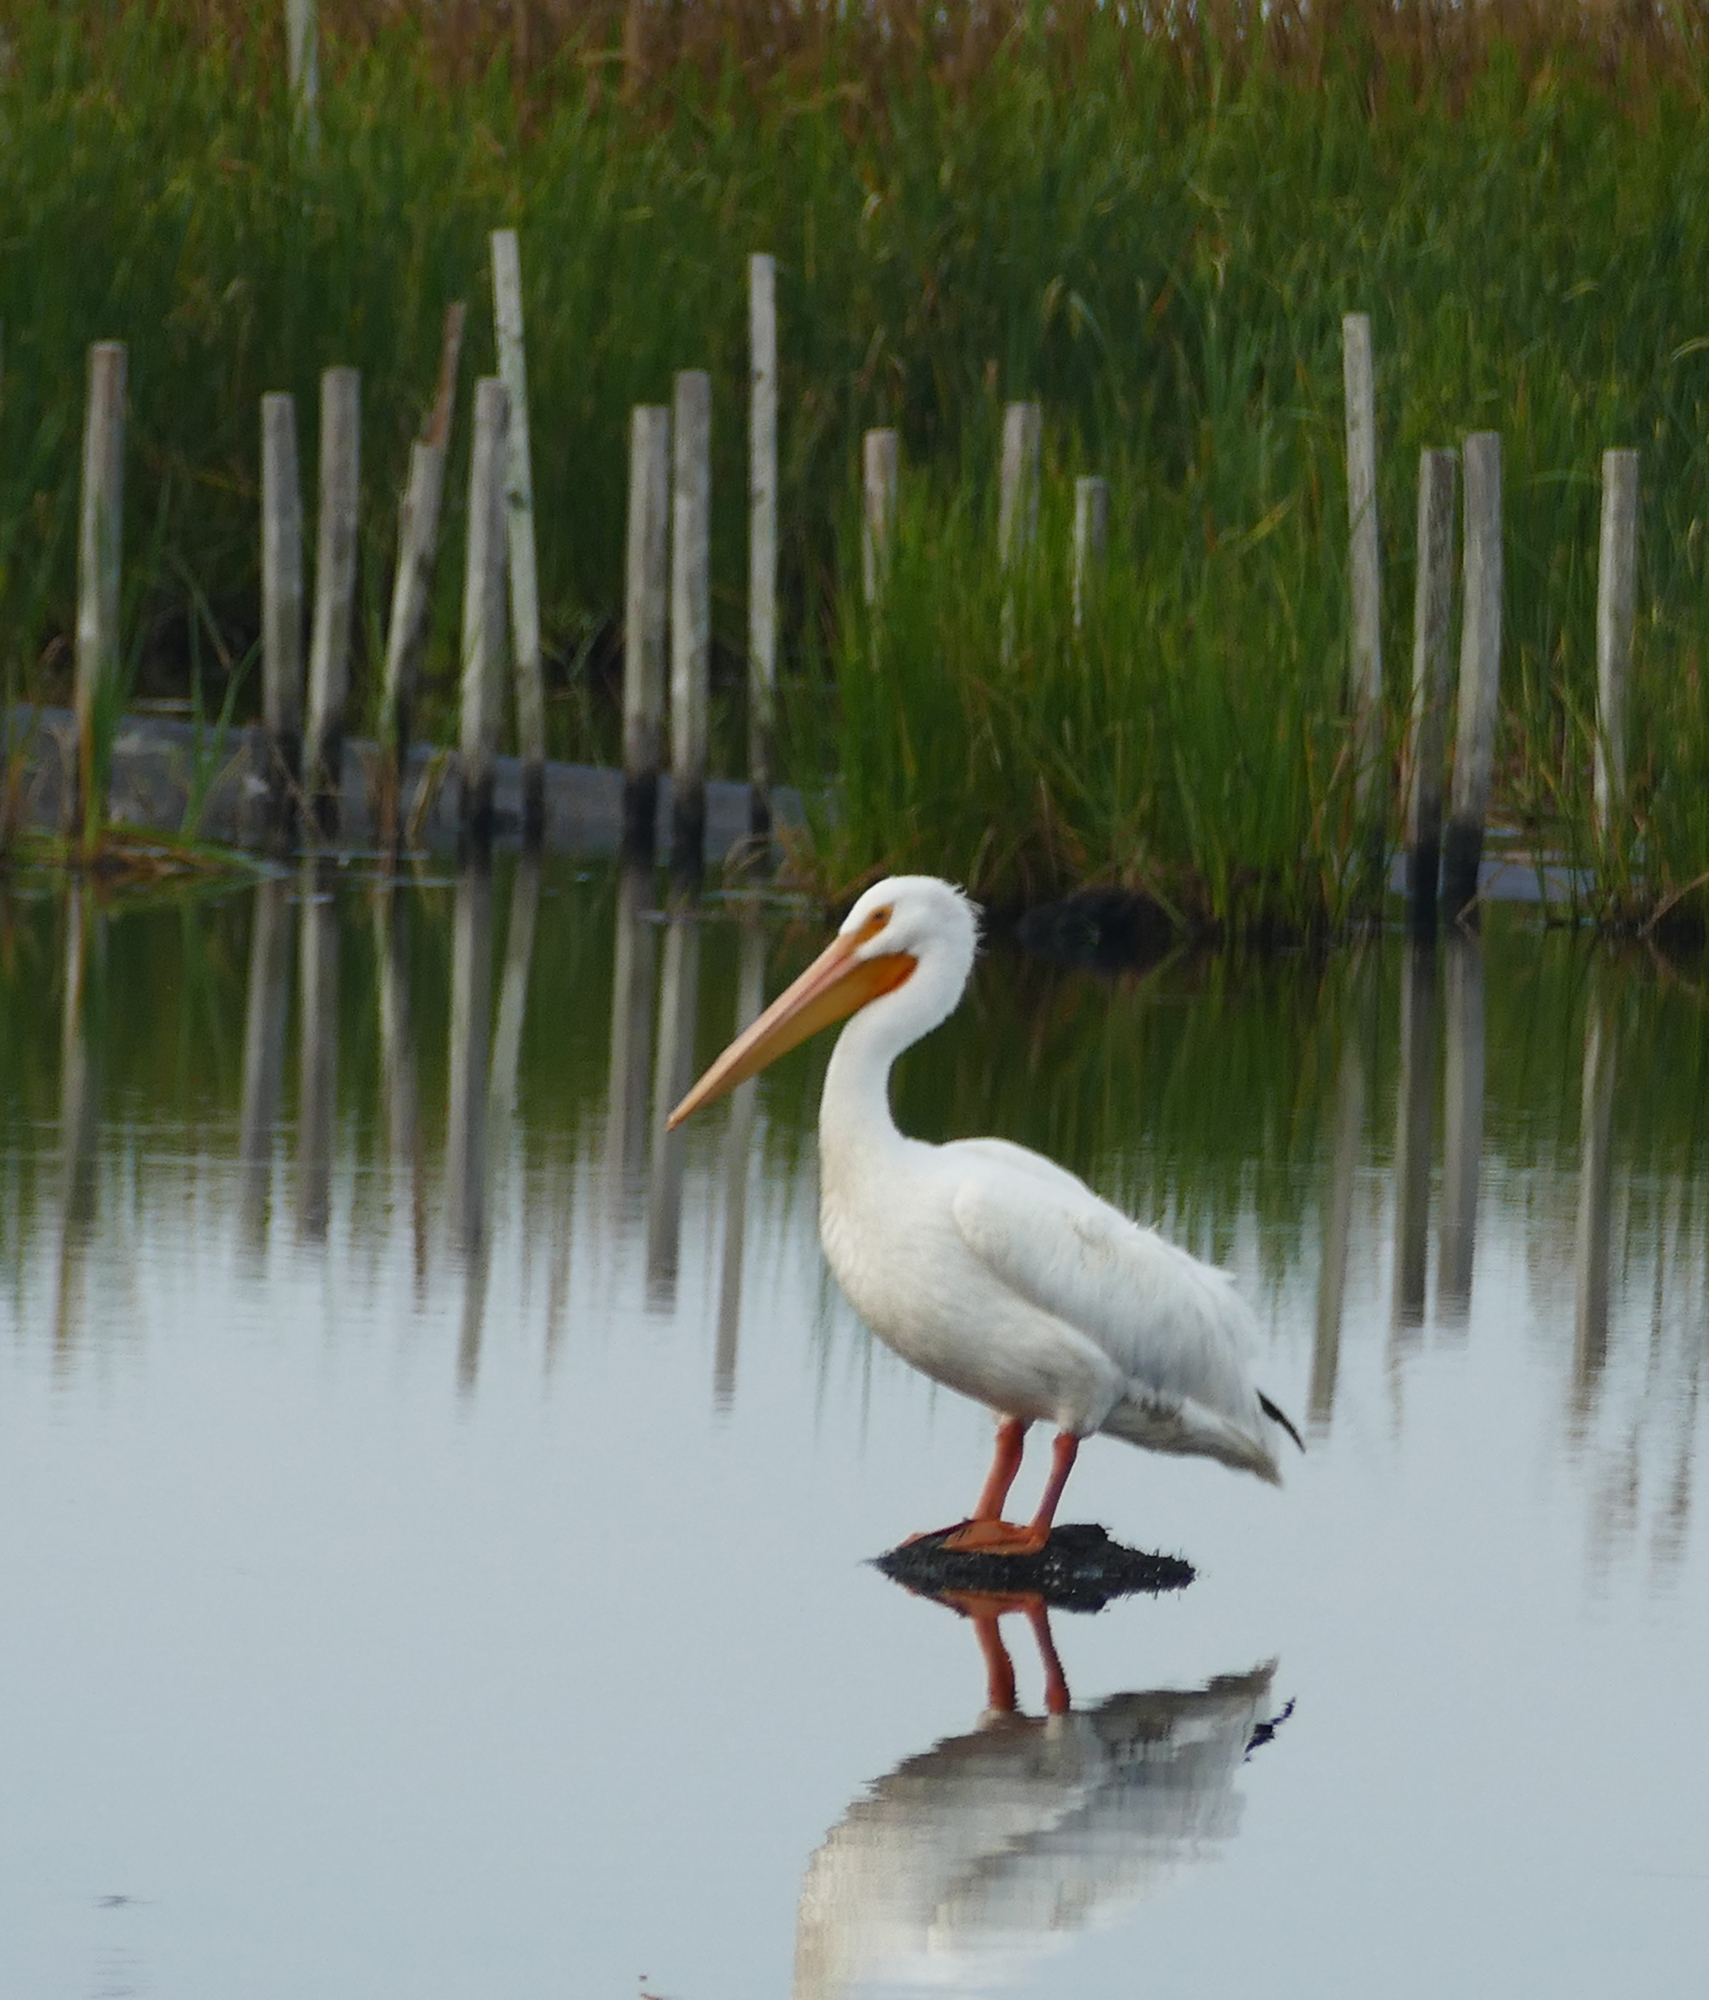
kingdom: Animalia
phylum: Chordata
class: Aves
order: Pelecaniformes
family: Pelecanidae
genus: Pelecanus
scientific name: Pelecanus erythrorhynchos
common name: American white pelican
